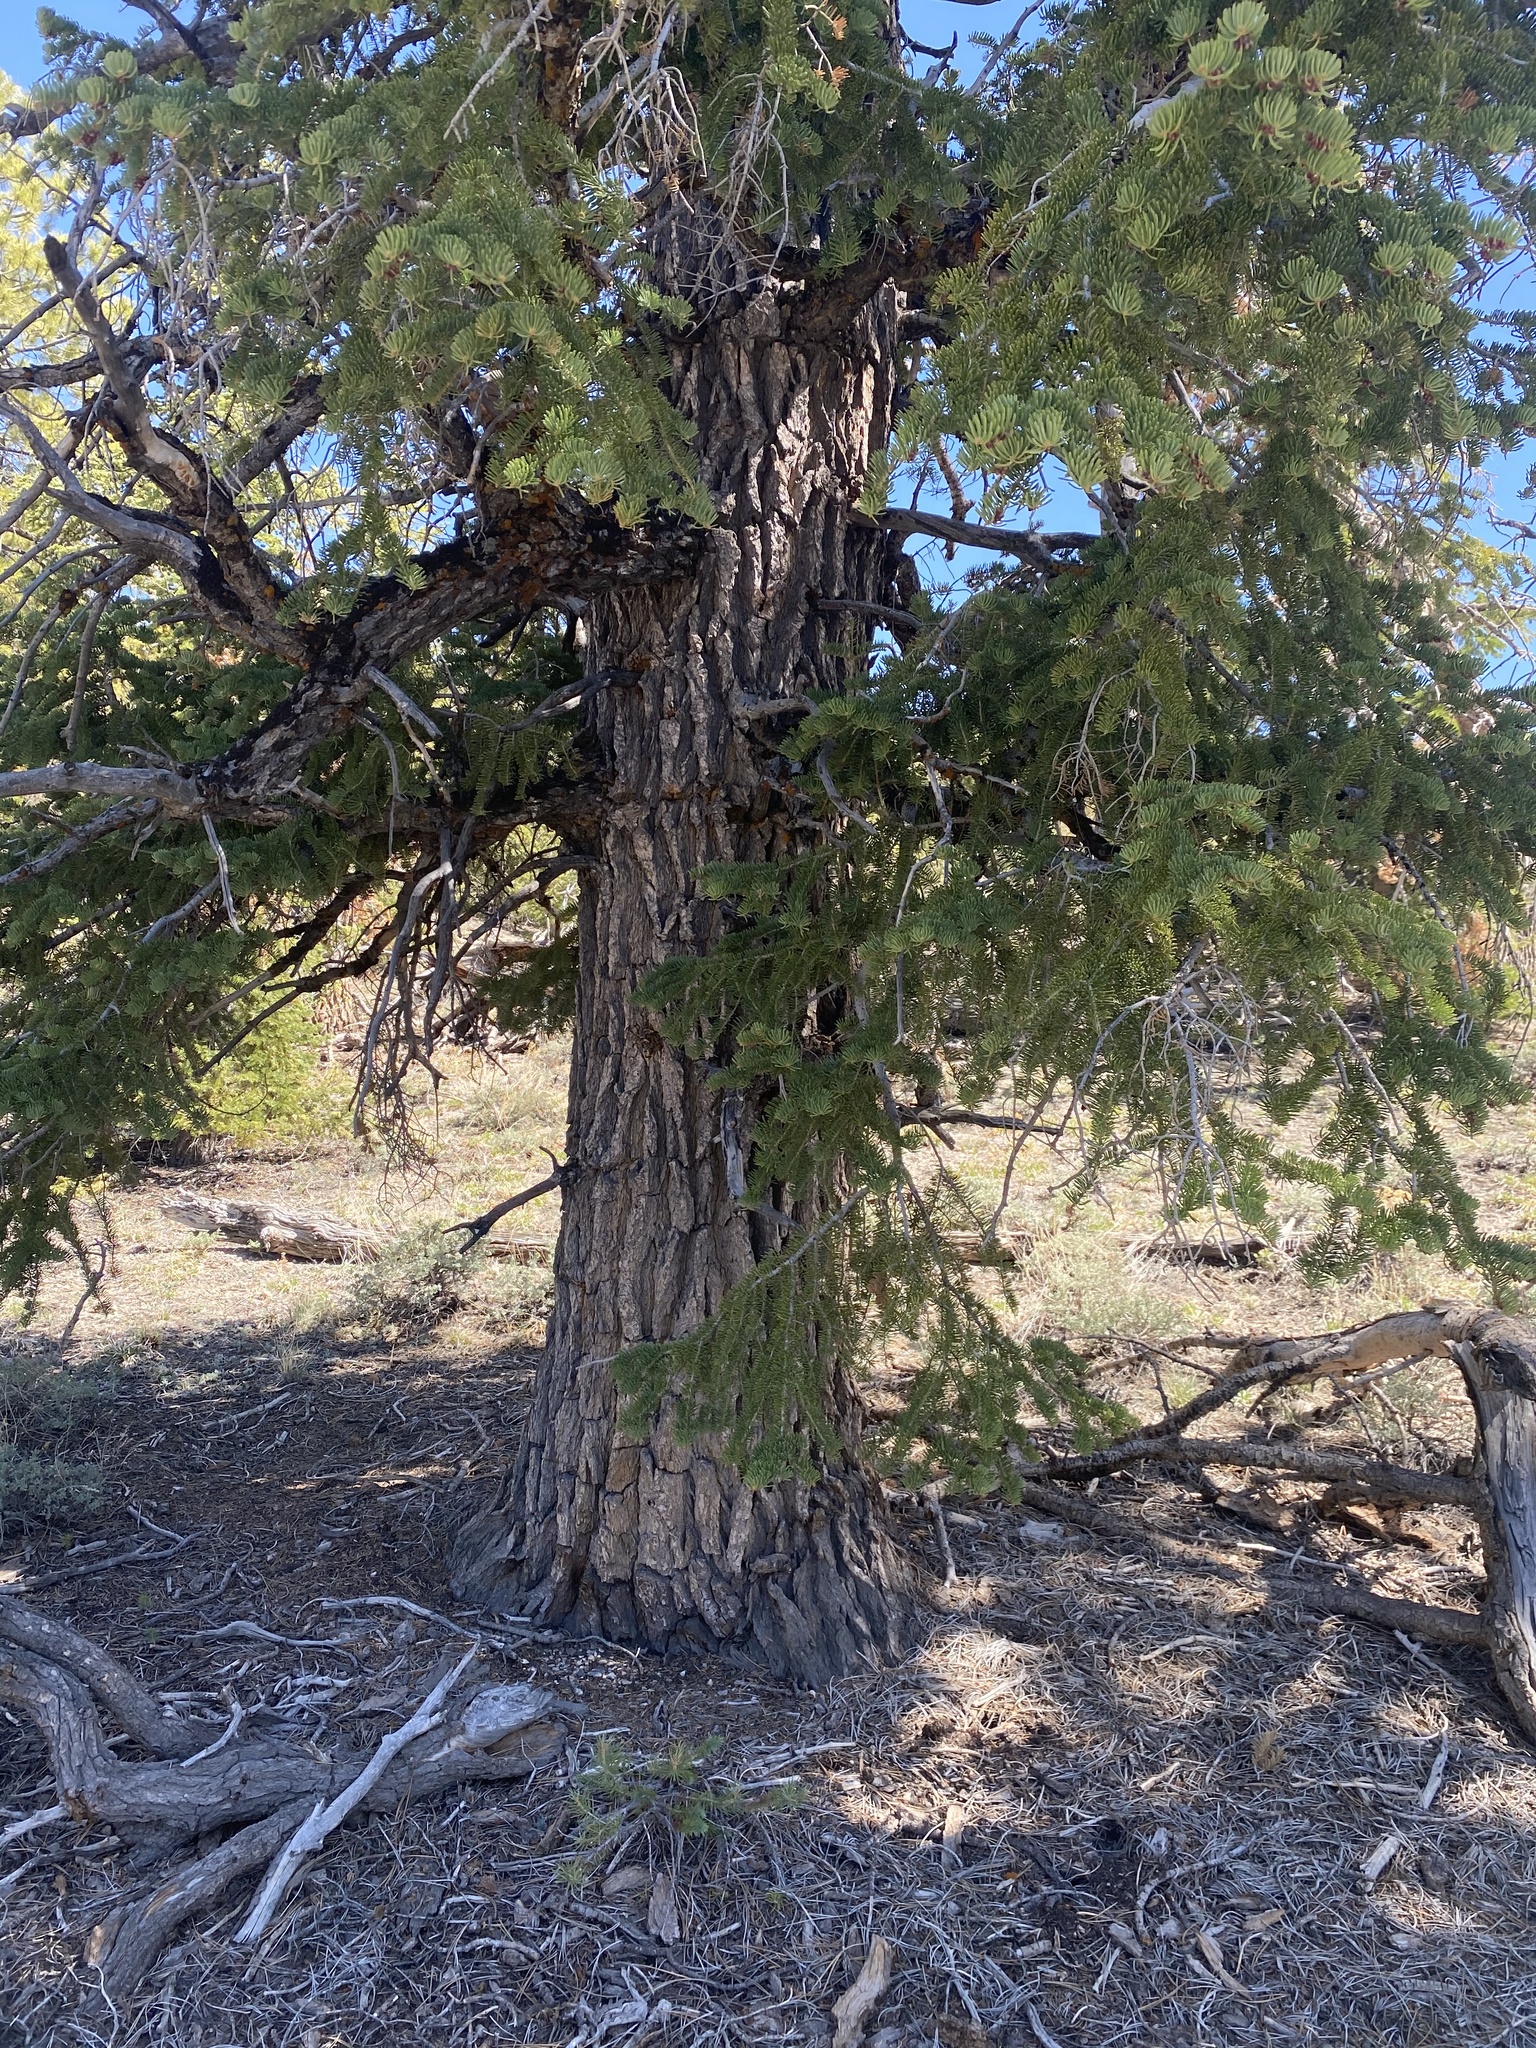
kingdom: Plantae
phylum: Tracheophyta
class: Pinopsida
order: Pinales
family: Pinaceae
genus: Abies
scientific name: Abies concolor
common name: Colorado fir
